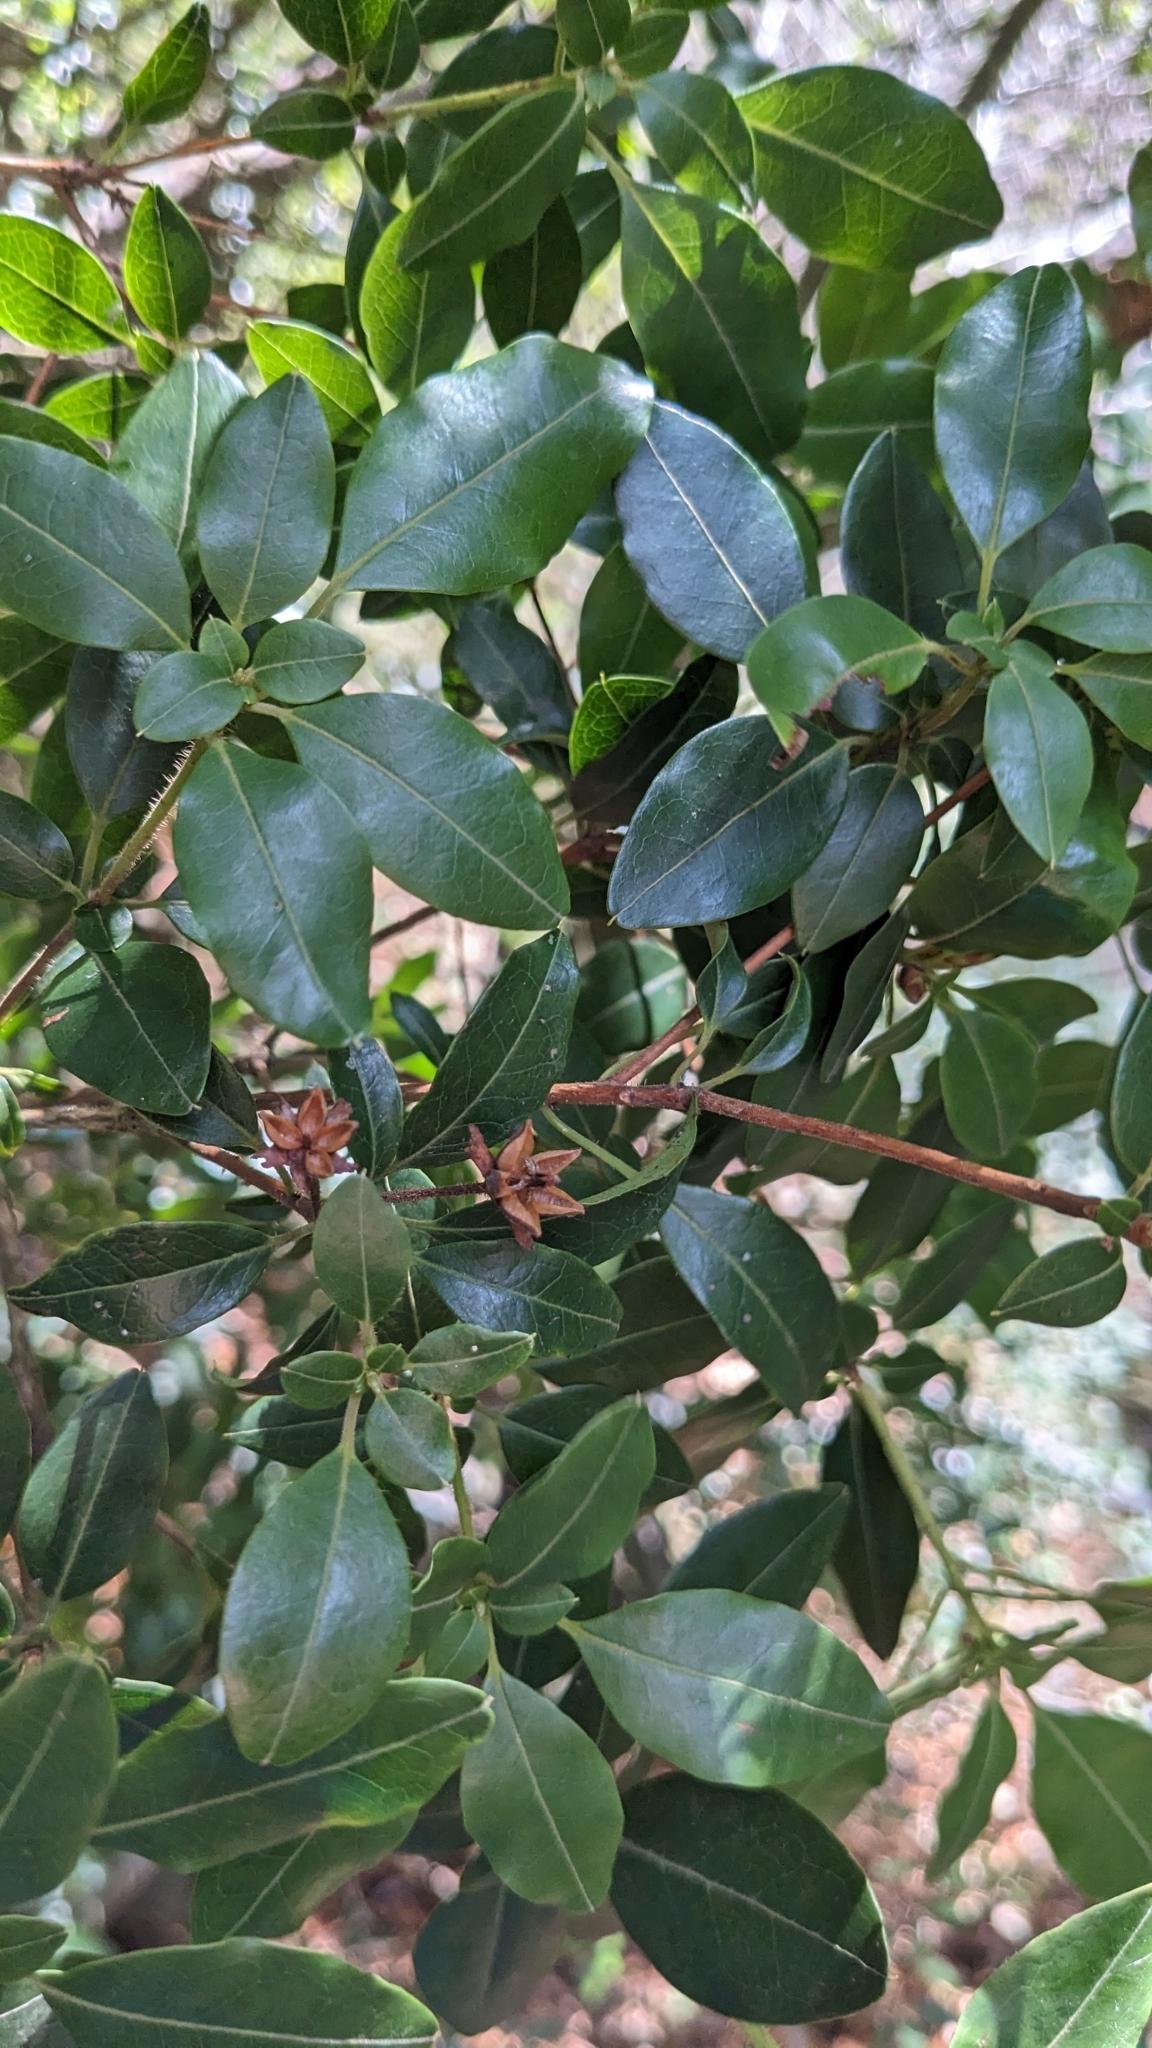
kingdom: Plantae
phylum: Tracheophyta
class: Magnoliopsida
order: Ericales
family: Ericaceae
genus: Rhododendron
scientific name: Rhododendron ovatum
